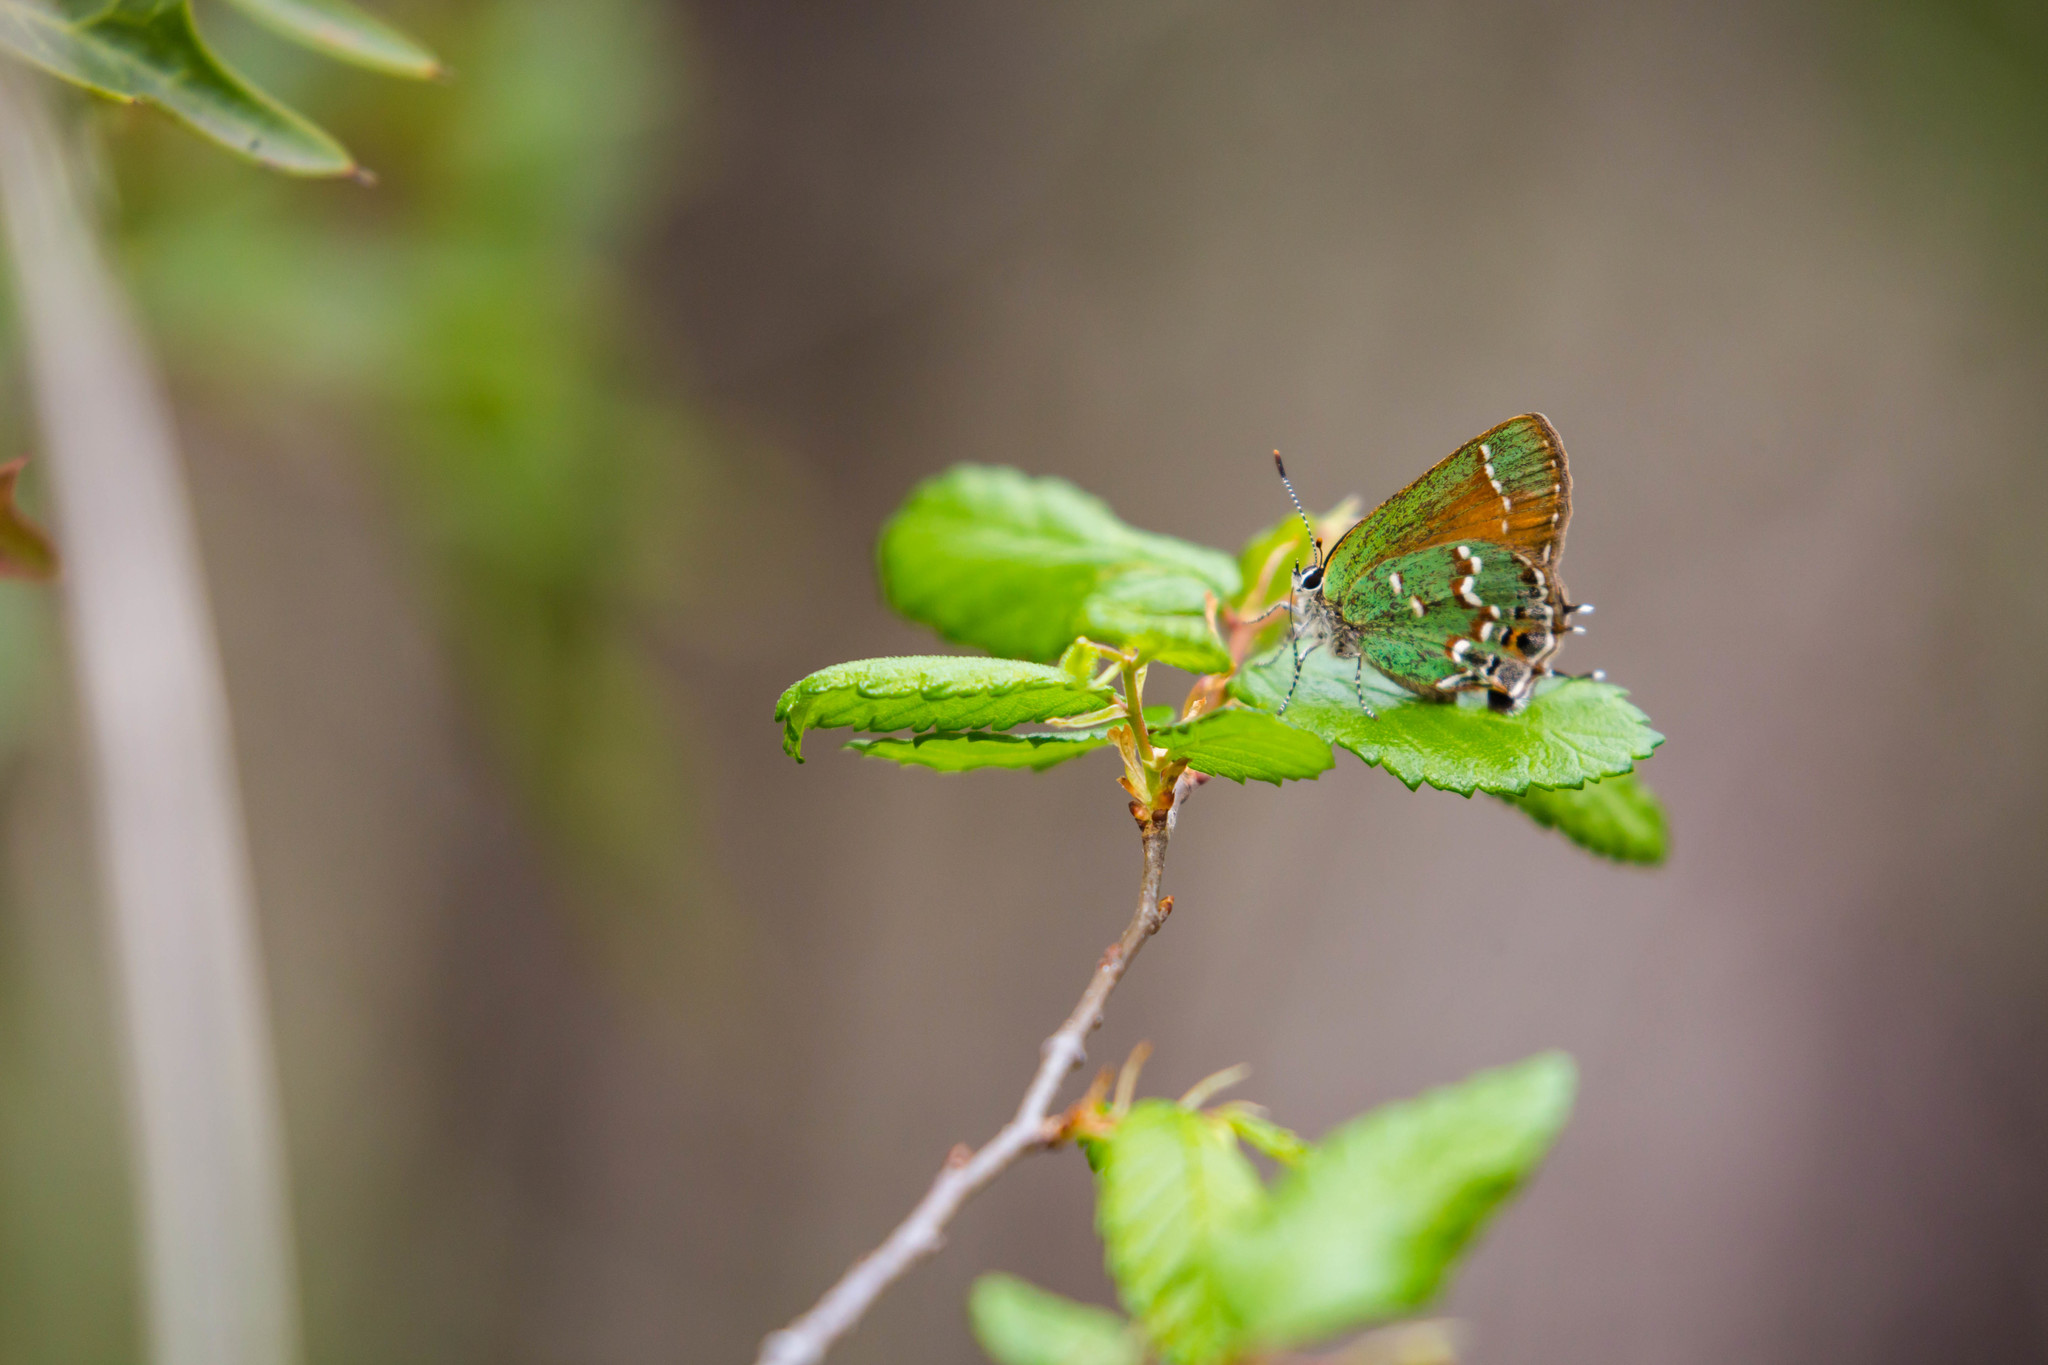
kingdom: Animalia
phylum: Arthropoda
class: Insecta
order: Lepidoptera
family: Lycaenidae
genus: Mitoura
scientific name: Mitoura gryneus
